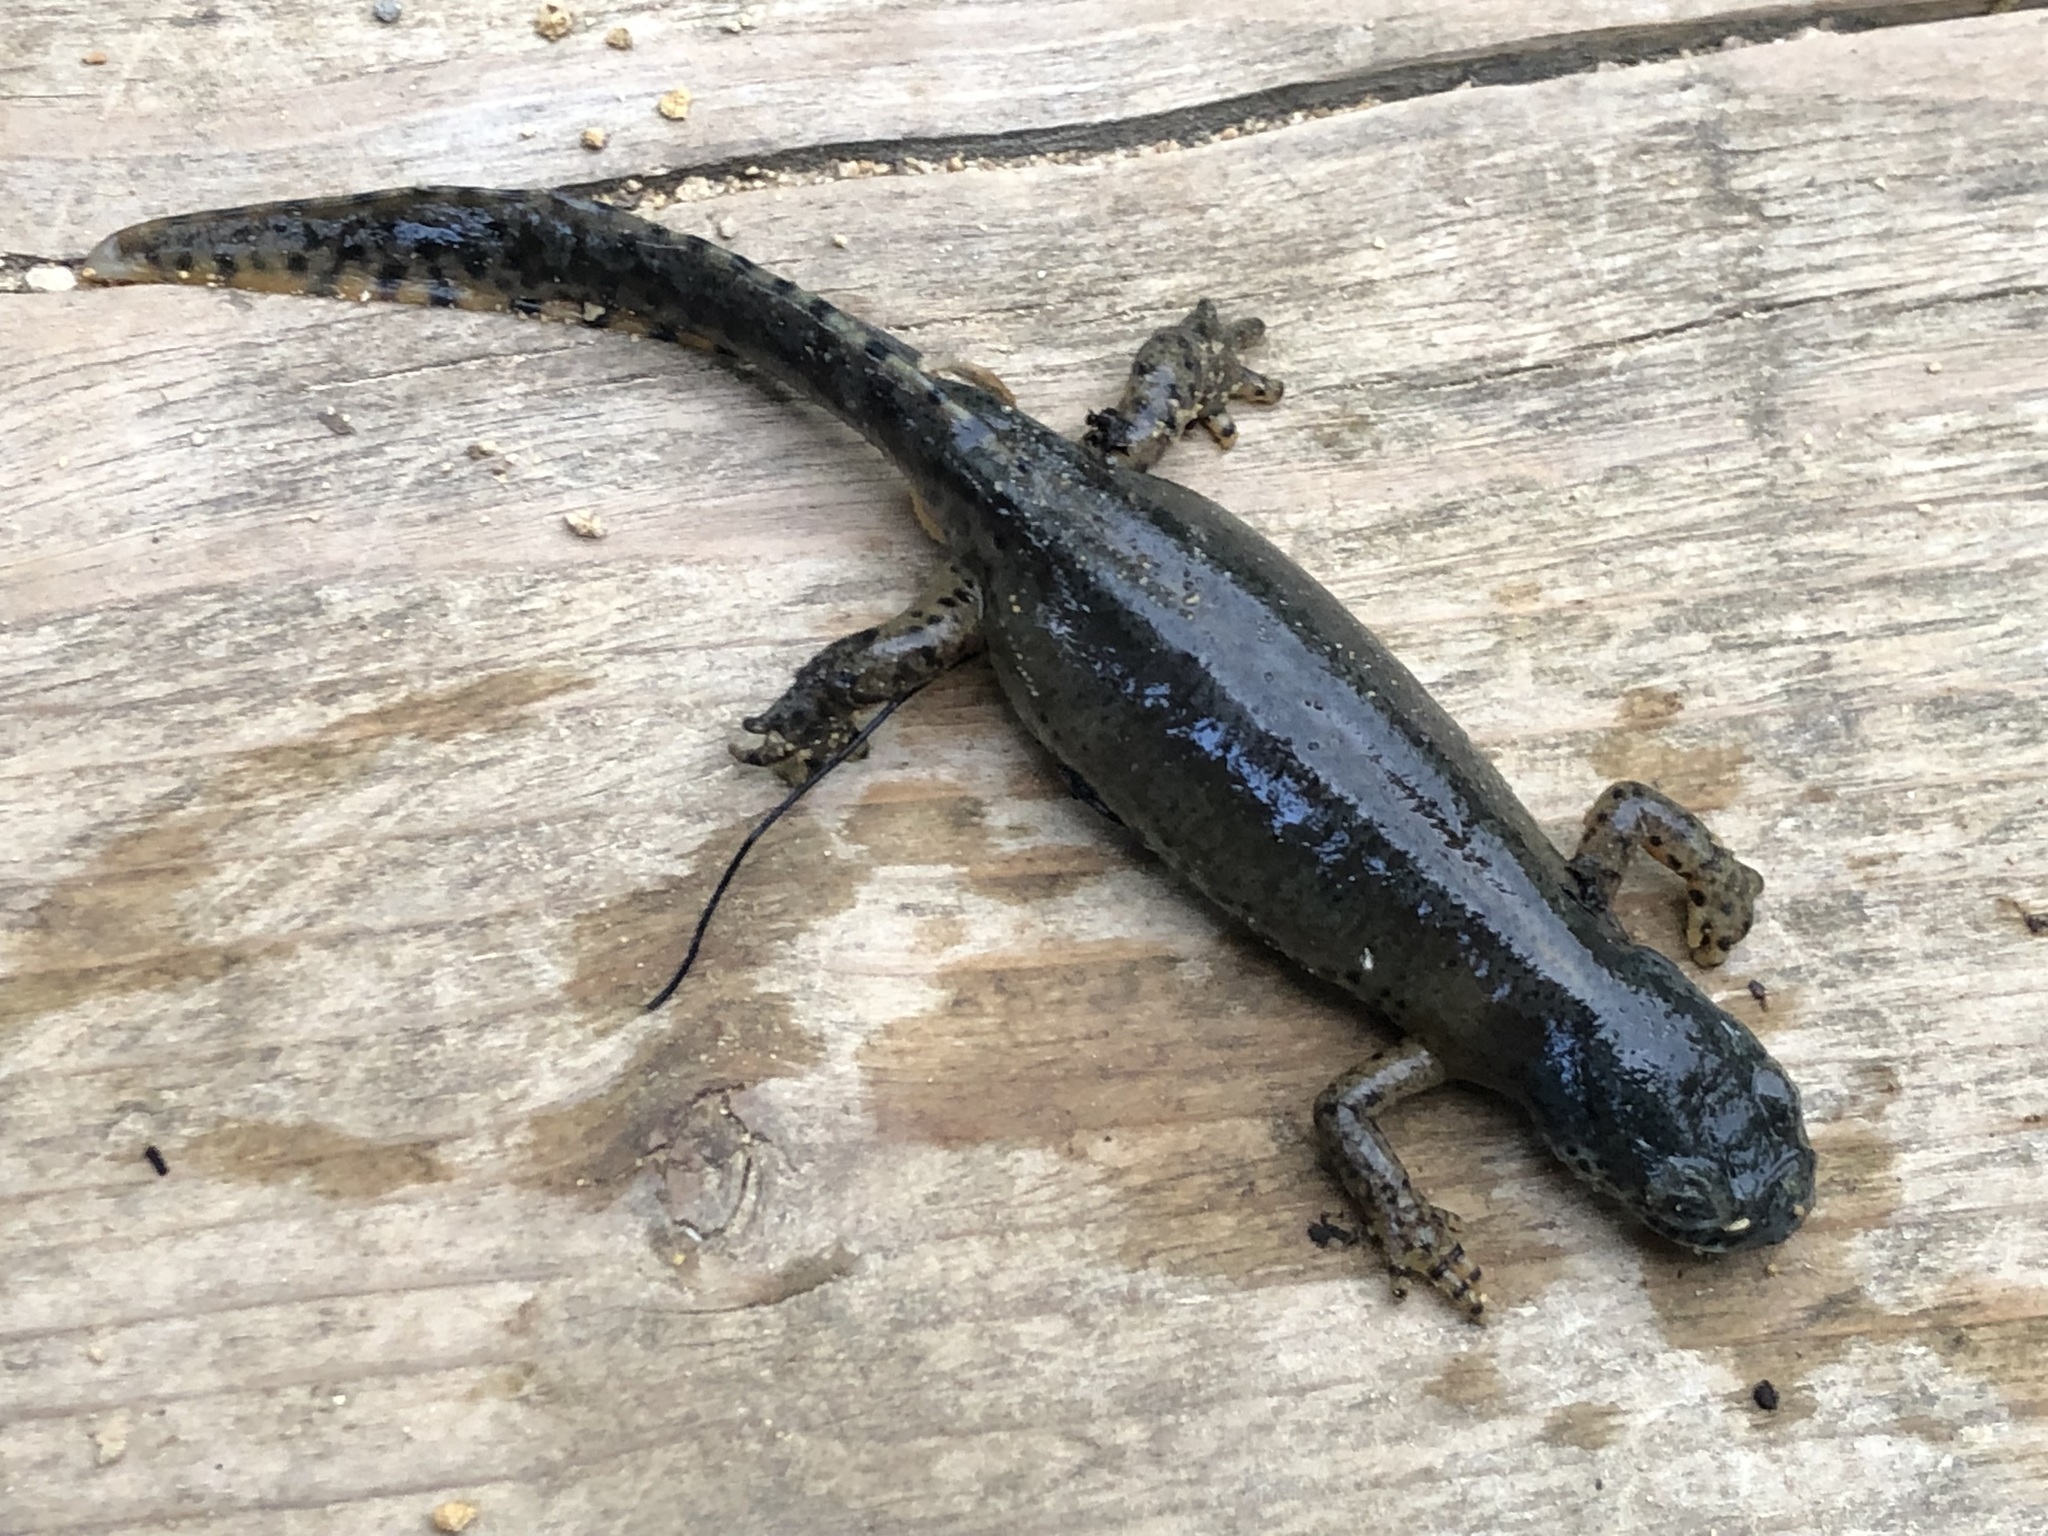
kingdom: Animalia
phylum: Chordata
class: Amphibia
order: Caudata
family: Salamandridae
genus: Ichthyosaura
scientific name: Ichthyosaura alpestris
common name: Alpine newt
